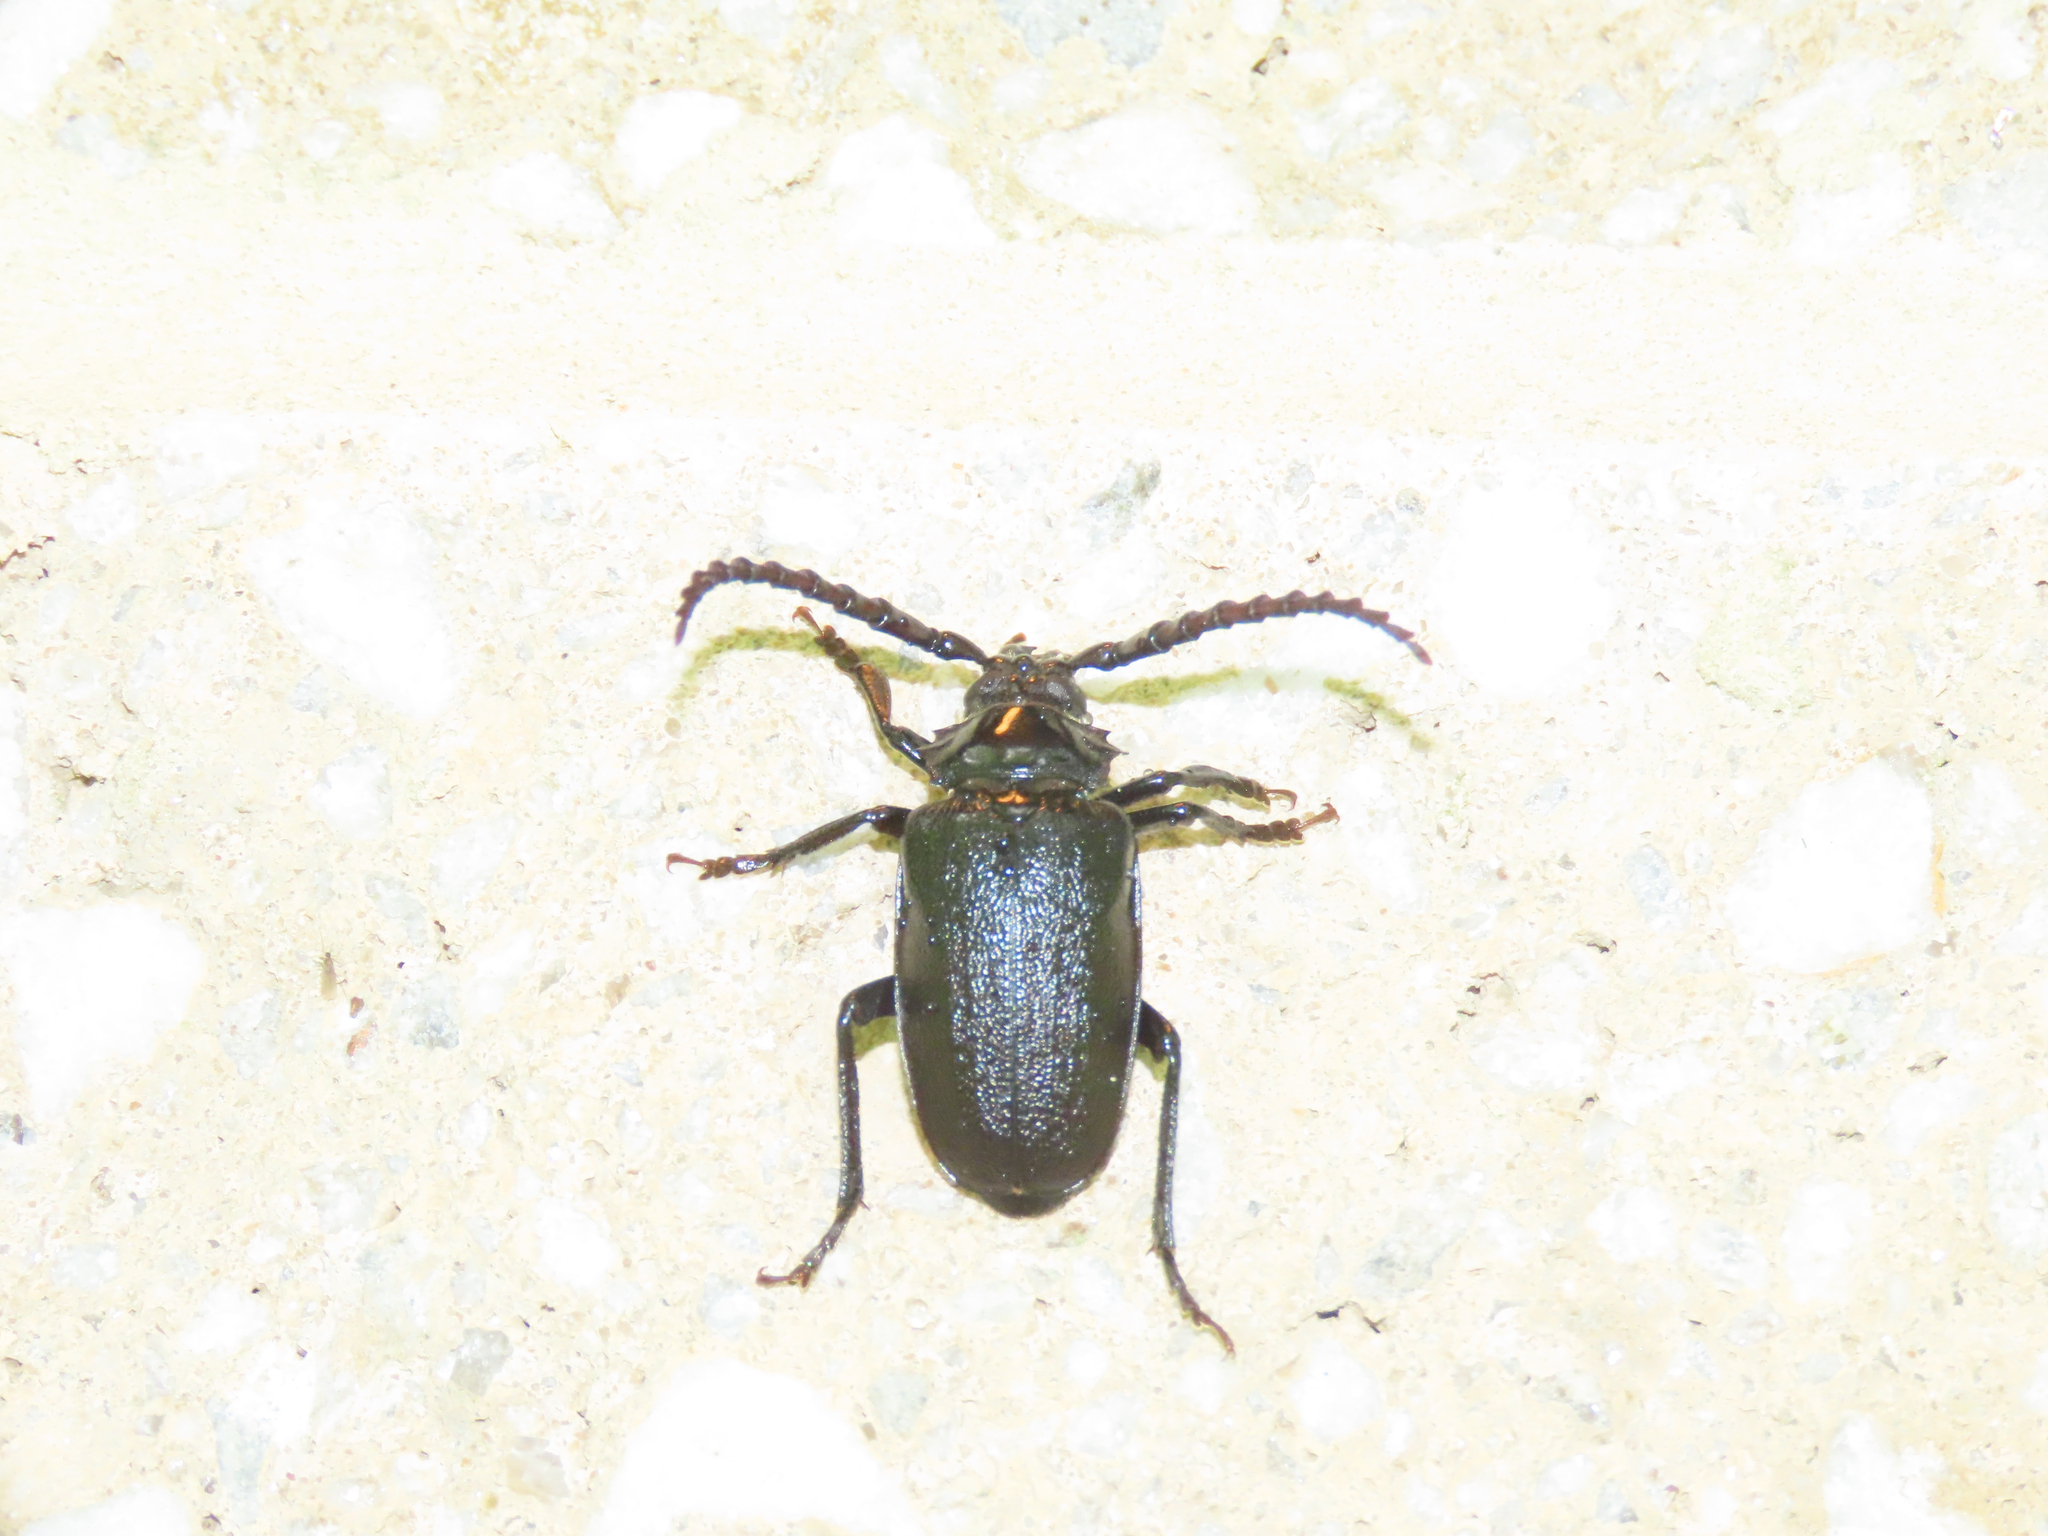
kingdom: Animalia
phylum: Arthropoda
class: Insecta
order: Coleoptera
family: Cerambycidae
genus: Prionus
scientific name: Prionus laticollis
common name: Broad necked prionus
